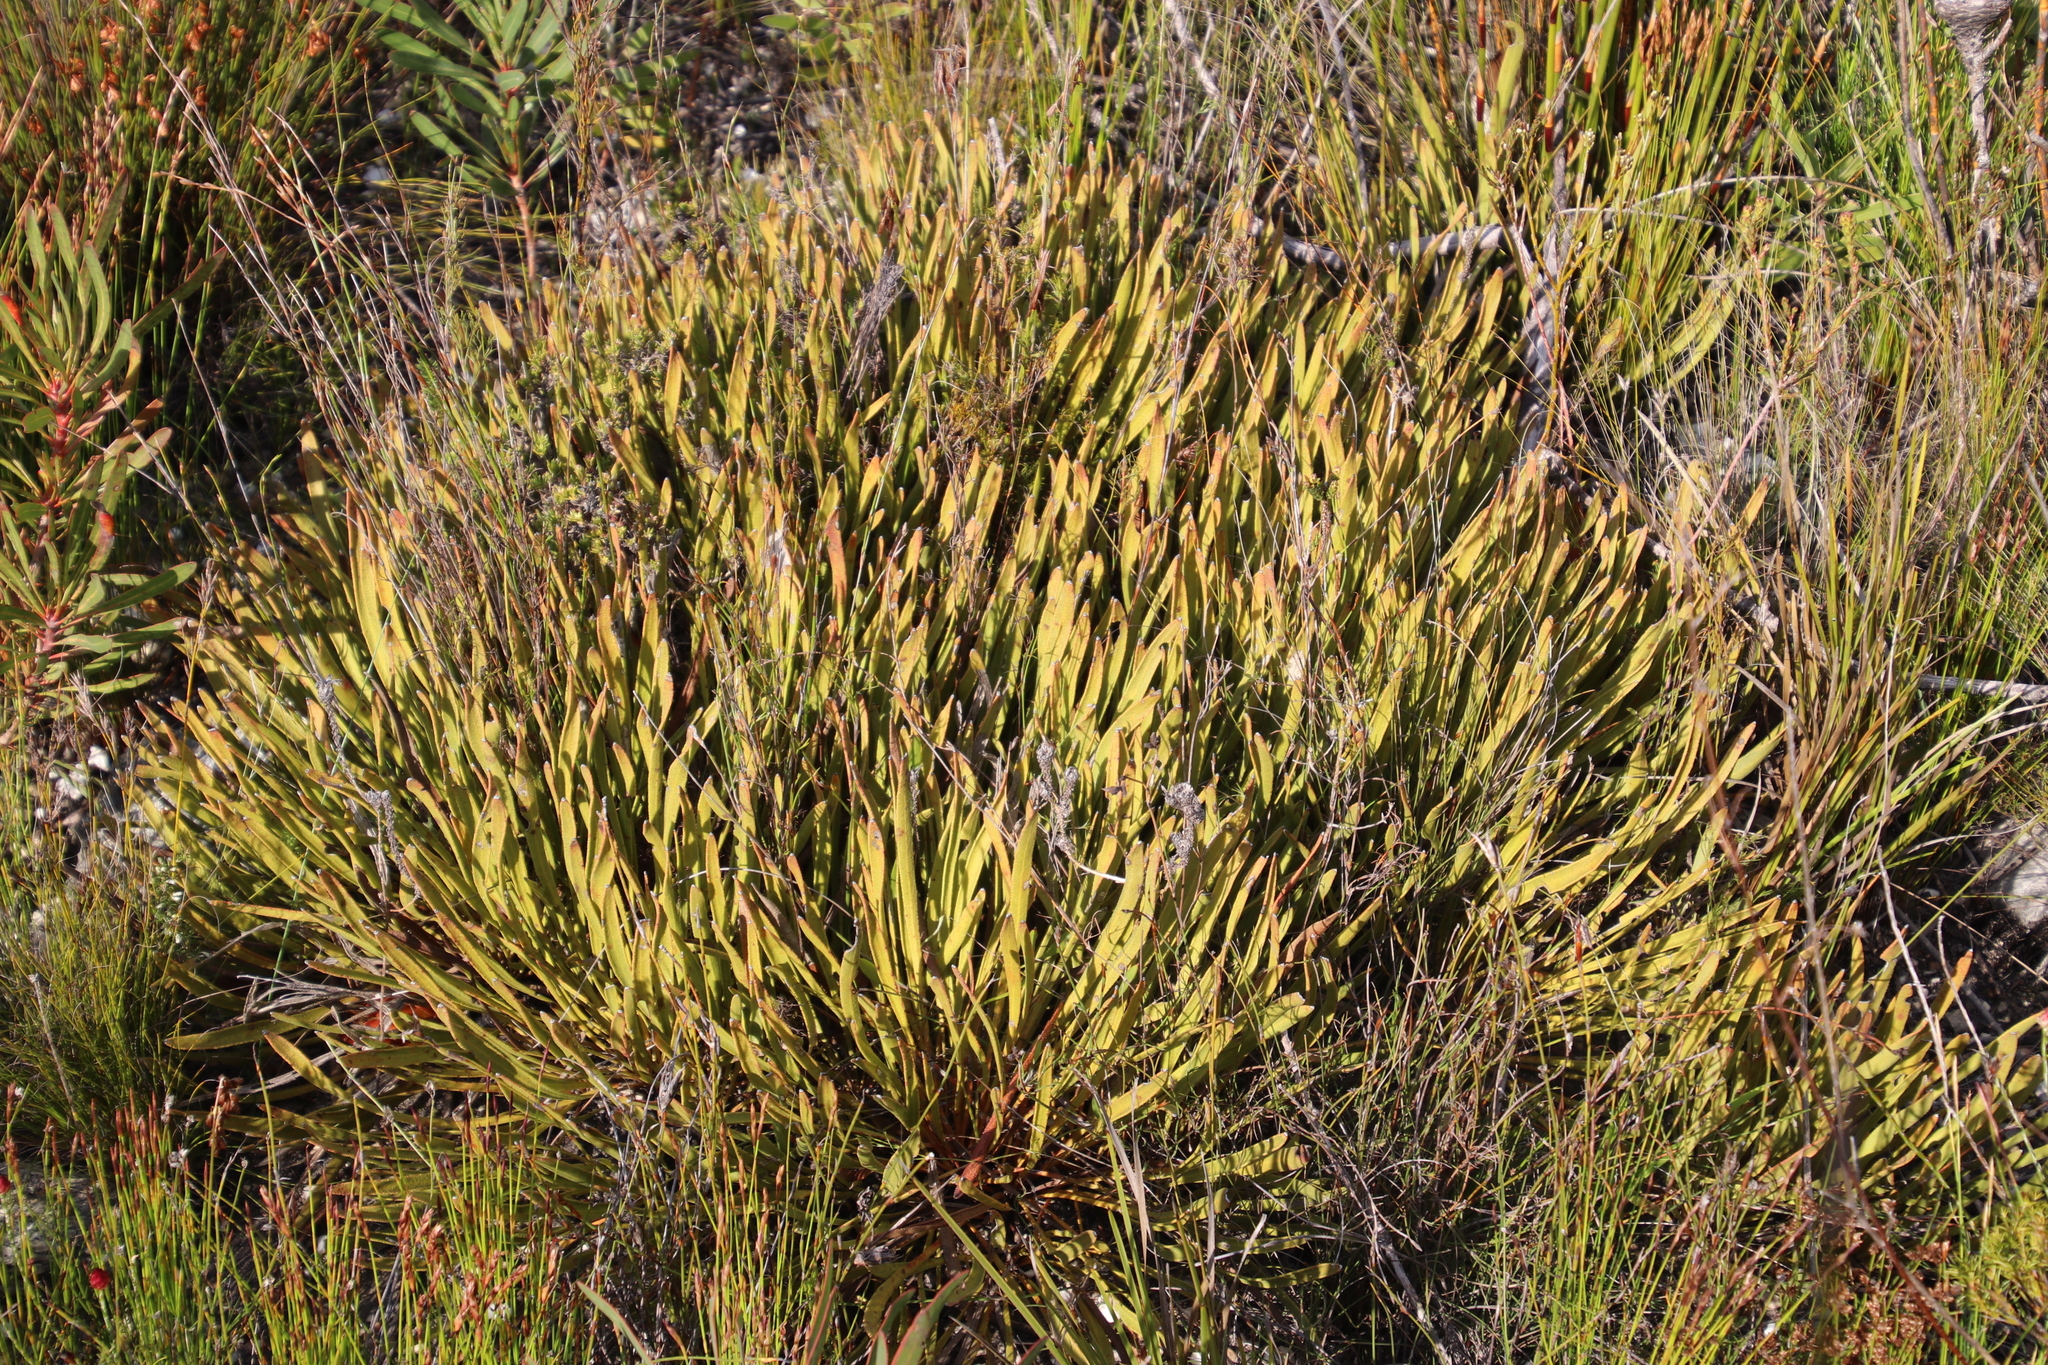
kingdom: Plantae
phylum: Tracheophyta
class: Magnoliopsida
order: Proteales
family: Proteaceae
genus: Protea
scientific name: Protea scabra
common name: Sandpaper-leaf sugarbush
